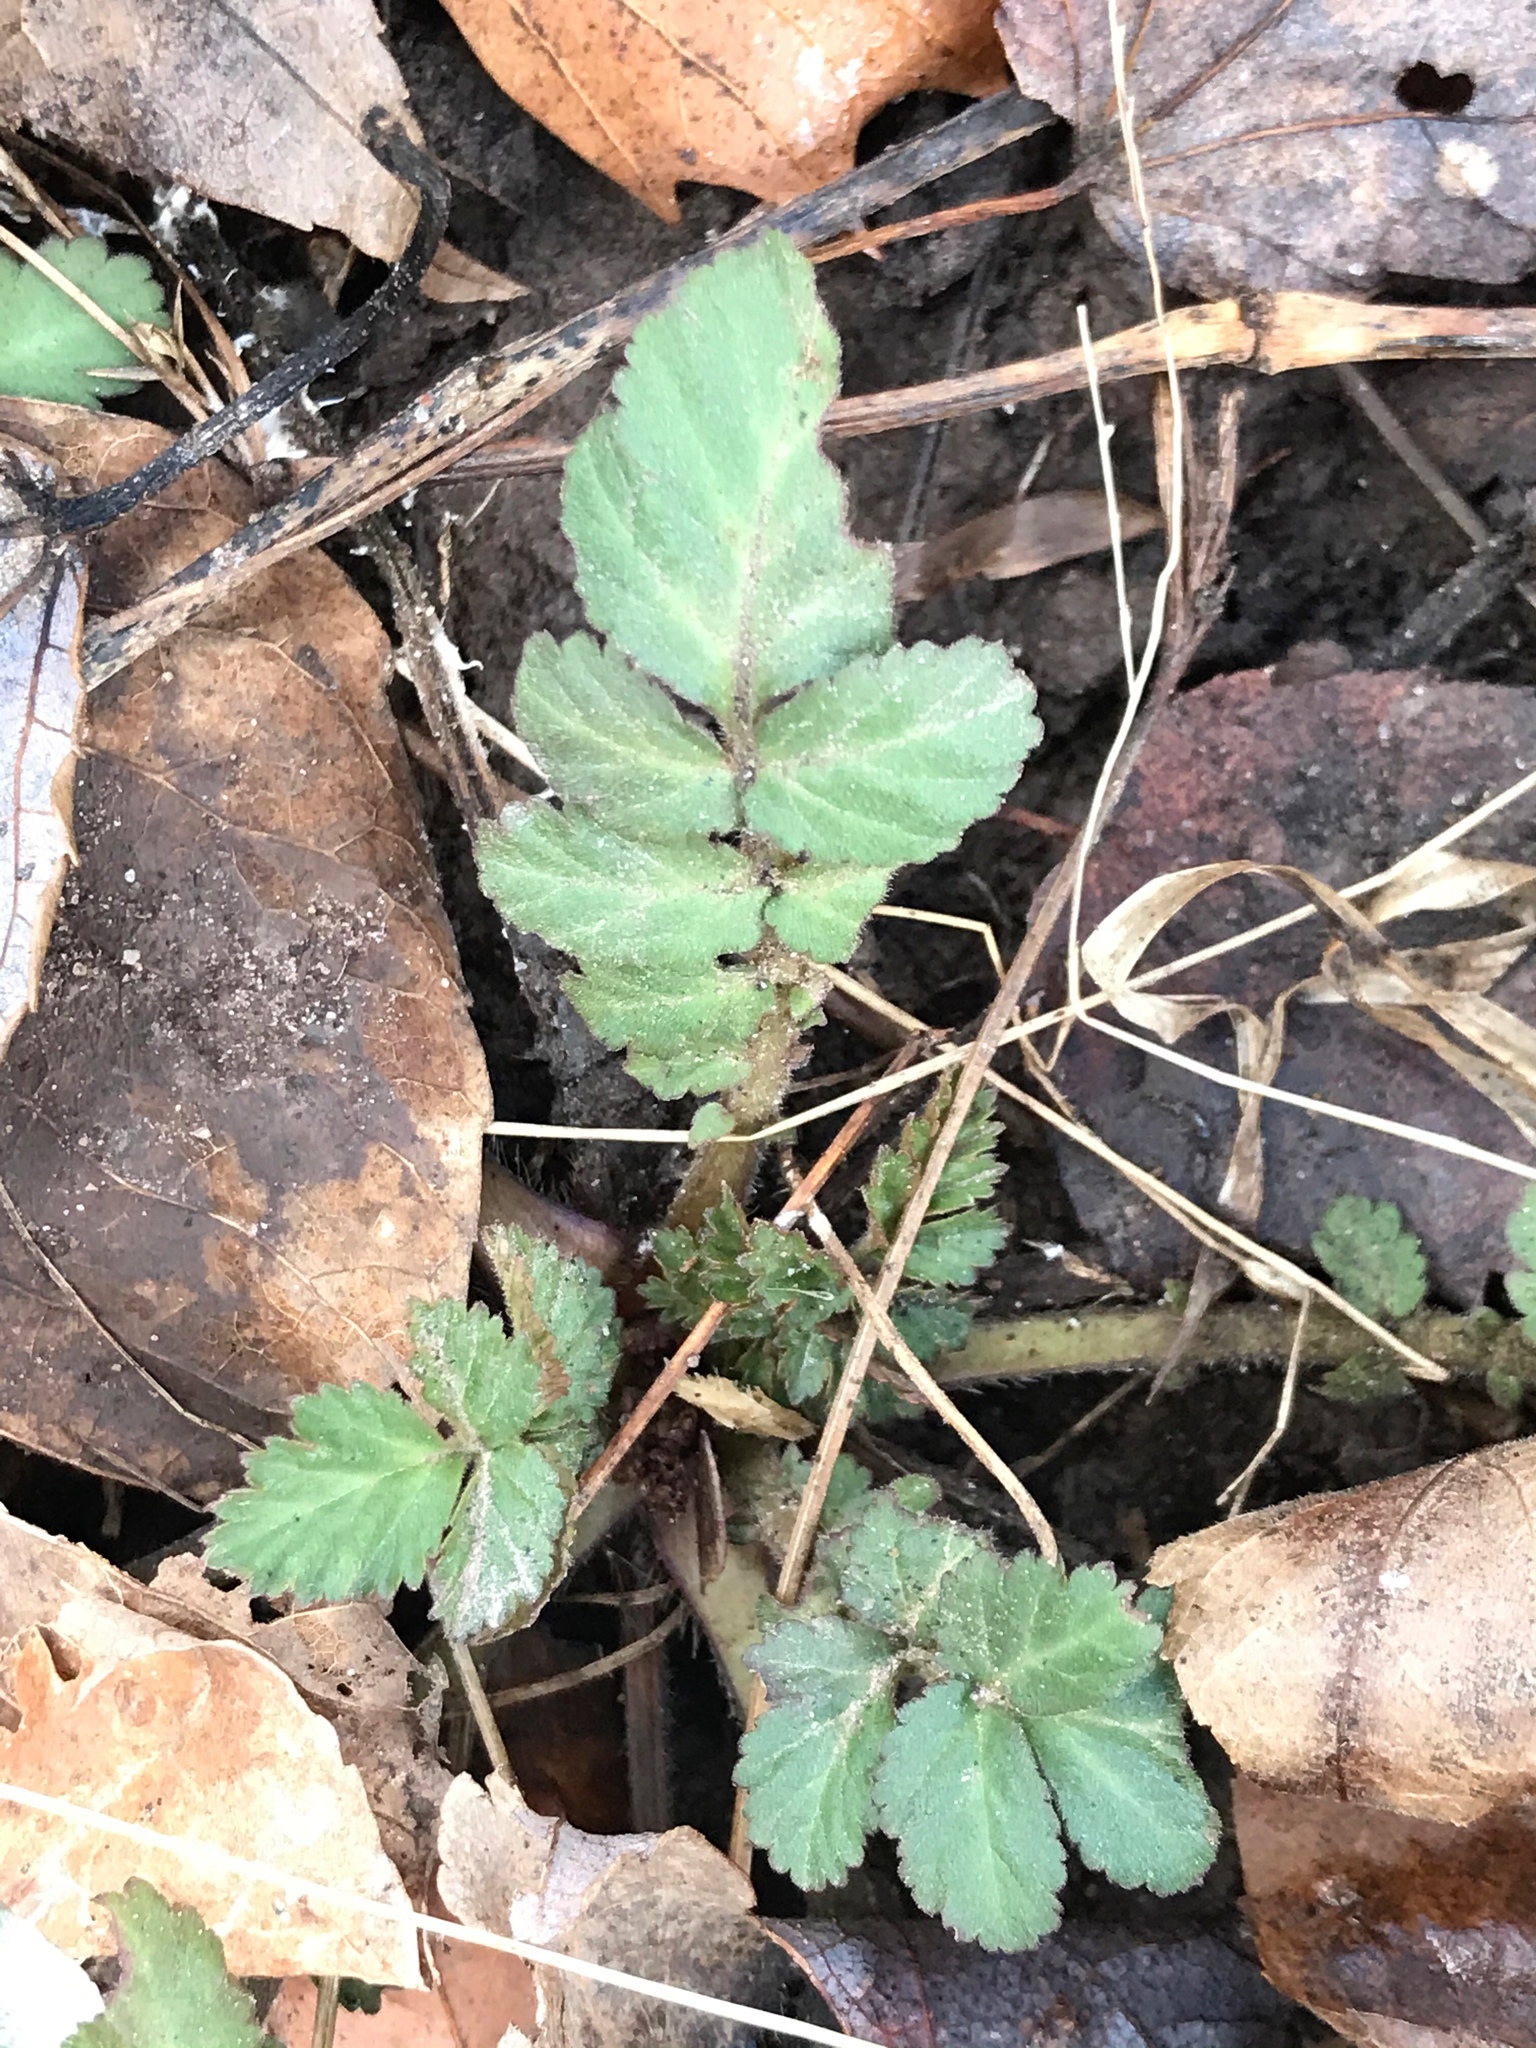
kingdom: Plantae
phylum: Tracheophyta
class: Magnoliopsida
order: Rosales
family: Rosaceae
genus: Geum
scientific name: Geum canadense
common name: White avens
